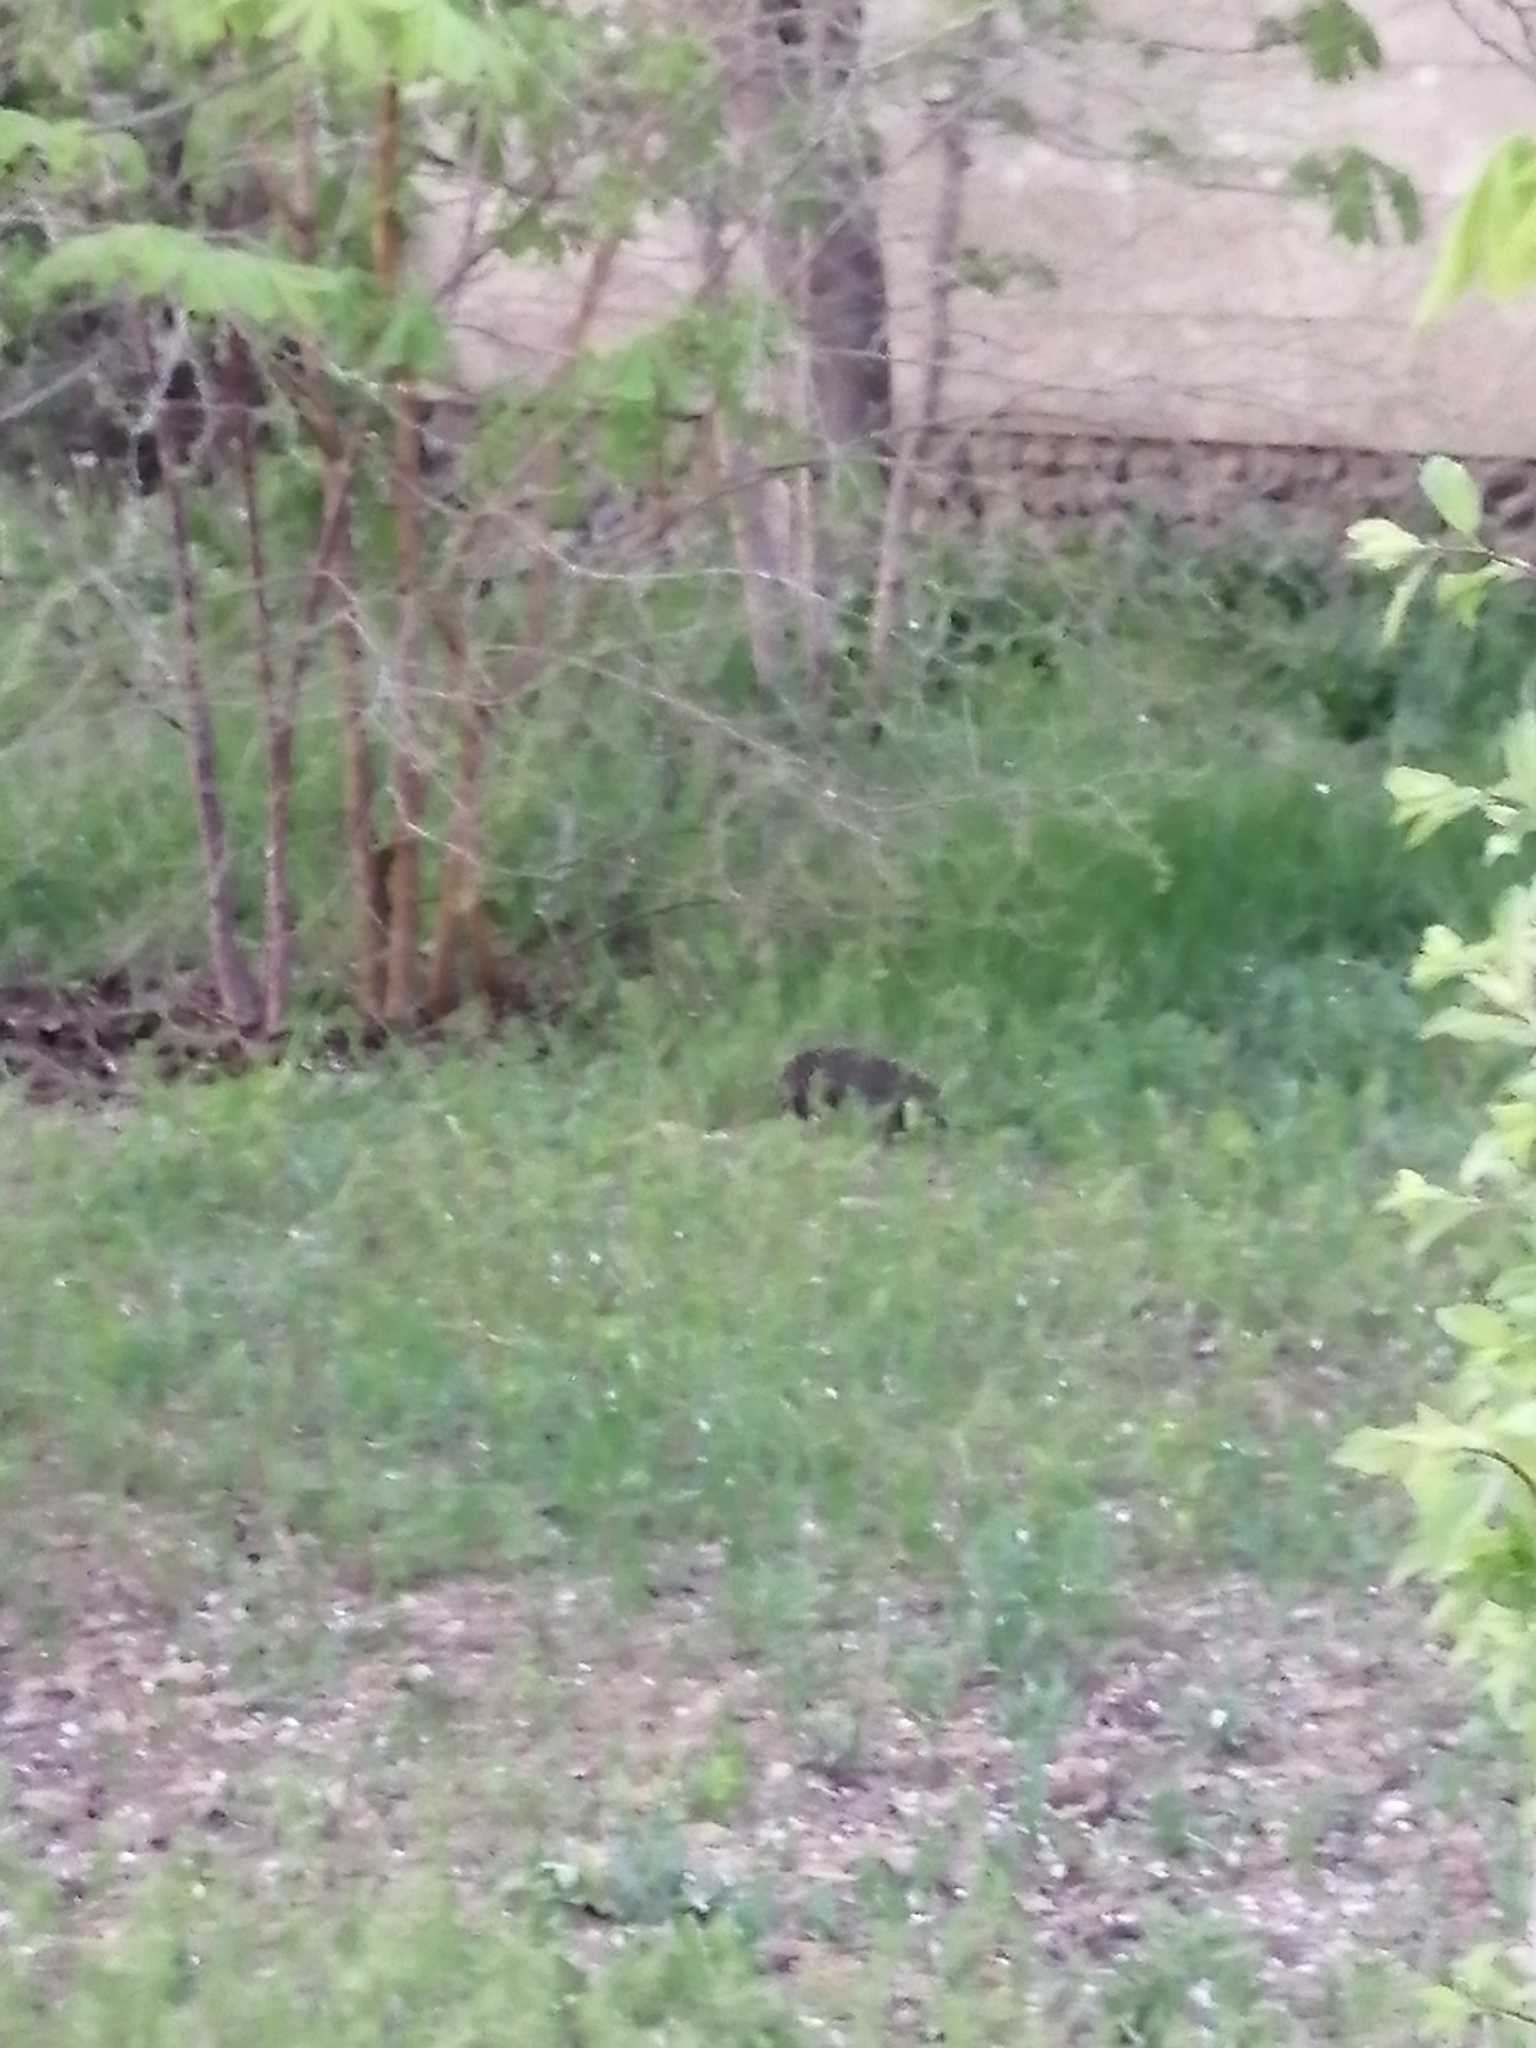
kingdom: Animalia
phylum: Chordata
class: Mammalia
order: Erinaceomorpha
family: Erinaceidae
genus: Erinaceus
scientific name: Erinaceus roumanicus
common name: Northern white-breasted hedgehog
